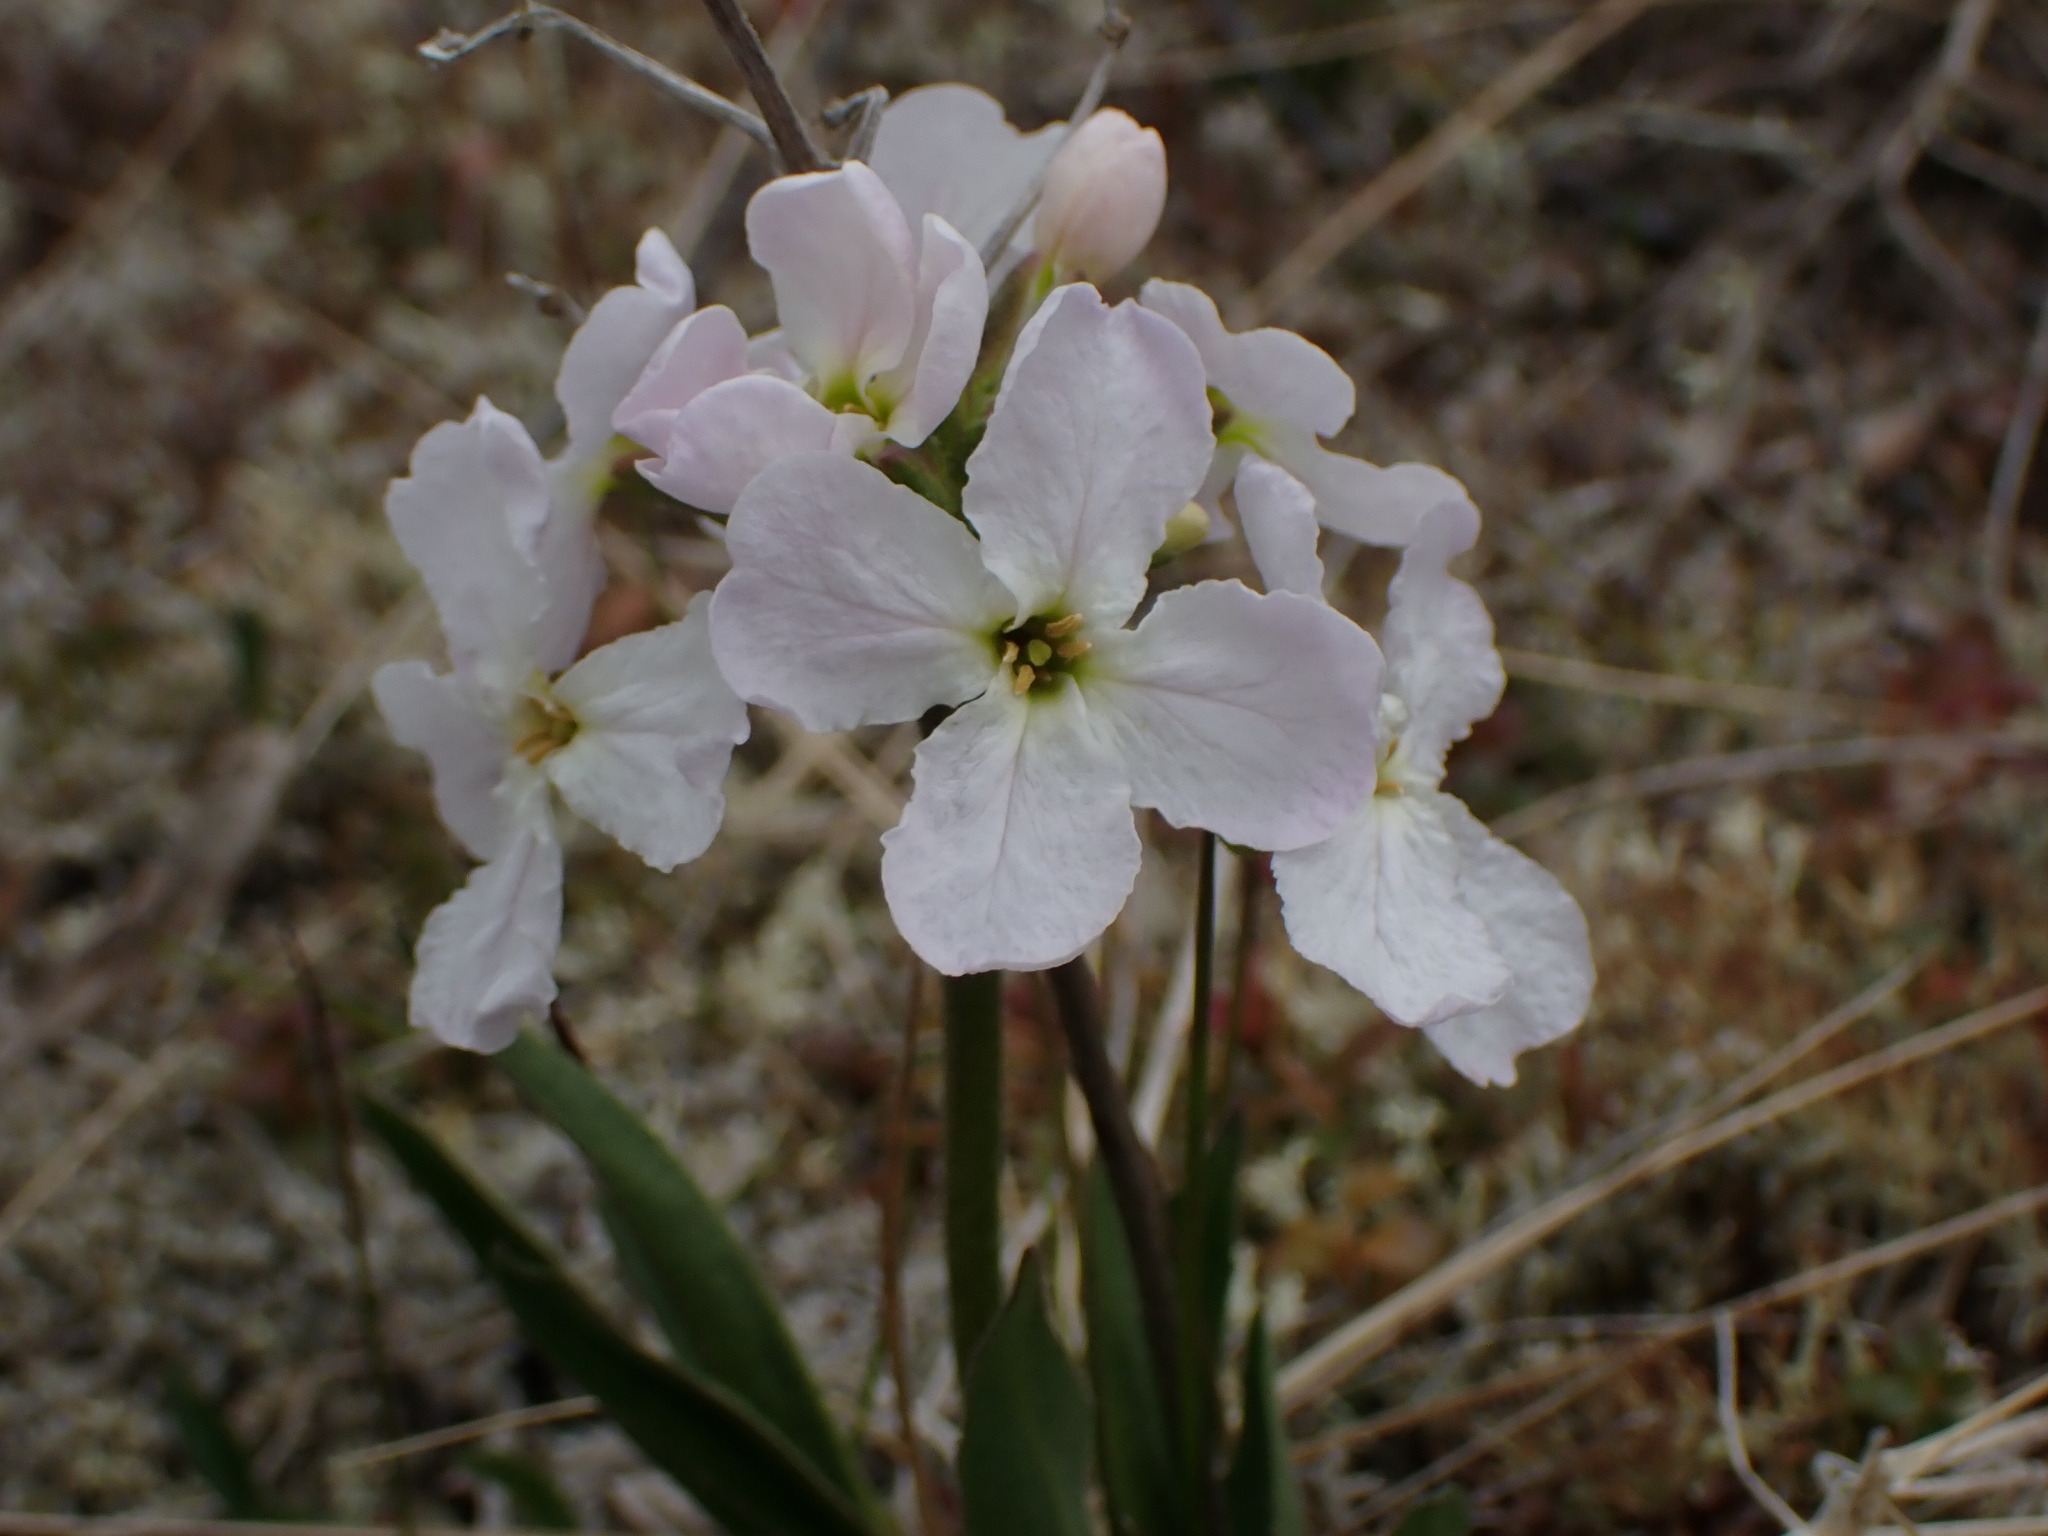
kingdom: Plantae
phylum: Tracheophyta
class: Magnoliopsida
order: Brassicales
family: Brassicaceae
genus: Parrya
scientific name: Parrya nudicaulis
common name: Naked-stemmed false wallflower
